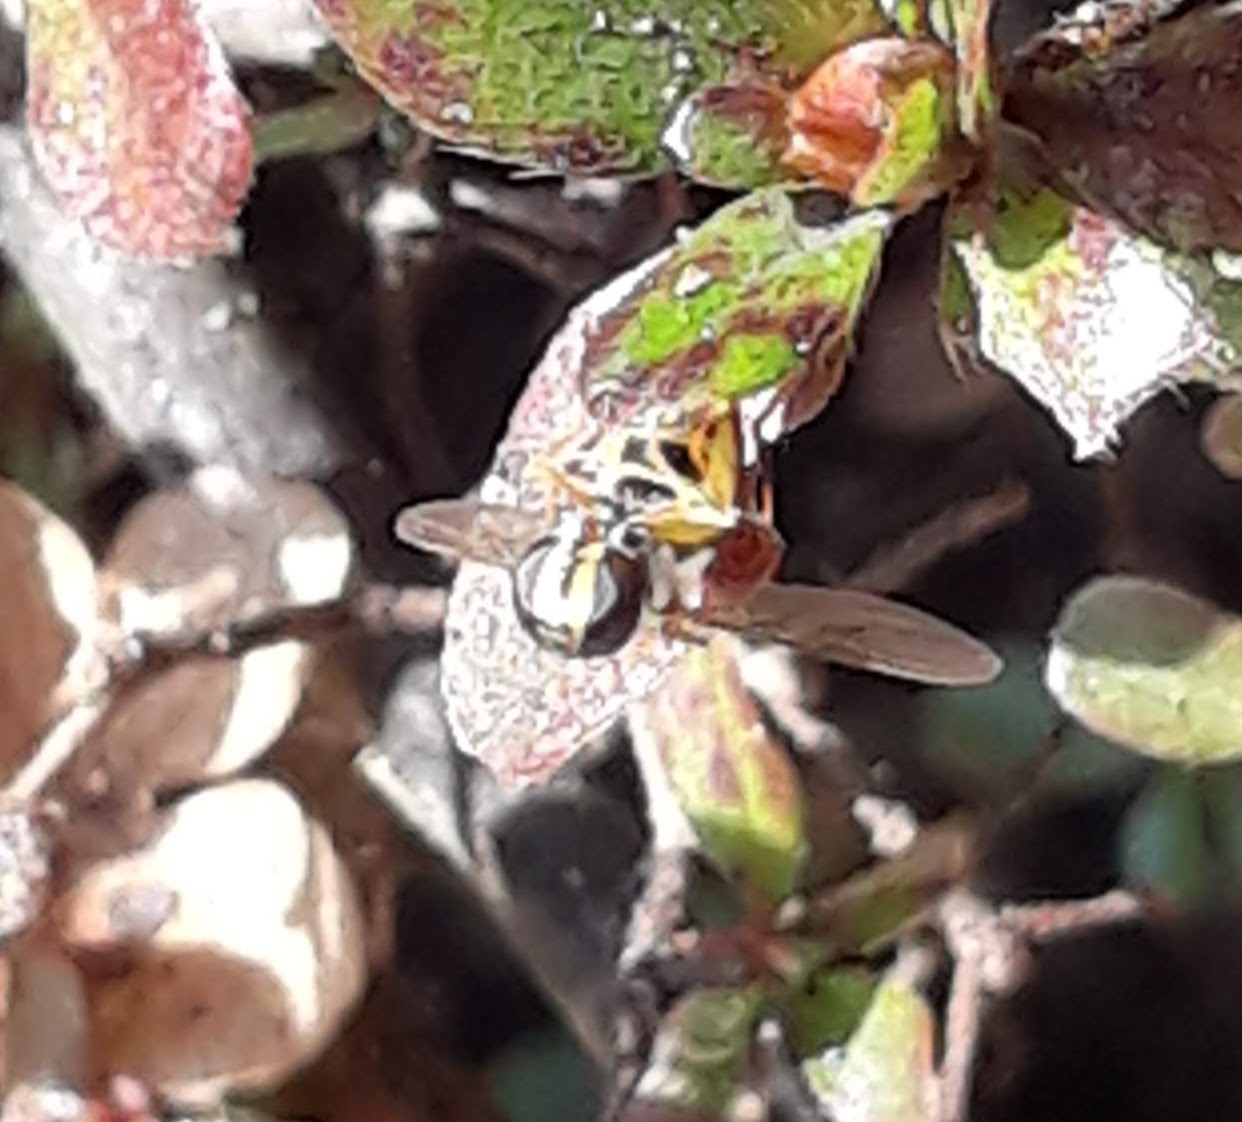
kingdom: Animalia
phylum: Arthropoda
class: Insecta
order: Diptera
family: Syrphidae
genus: Eupeodes
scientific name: Eupeodes
